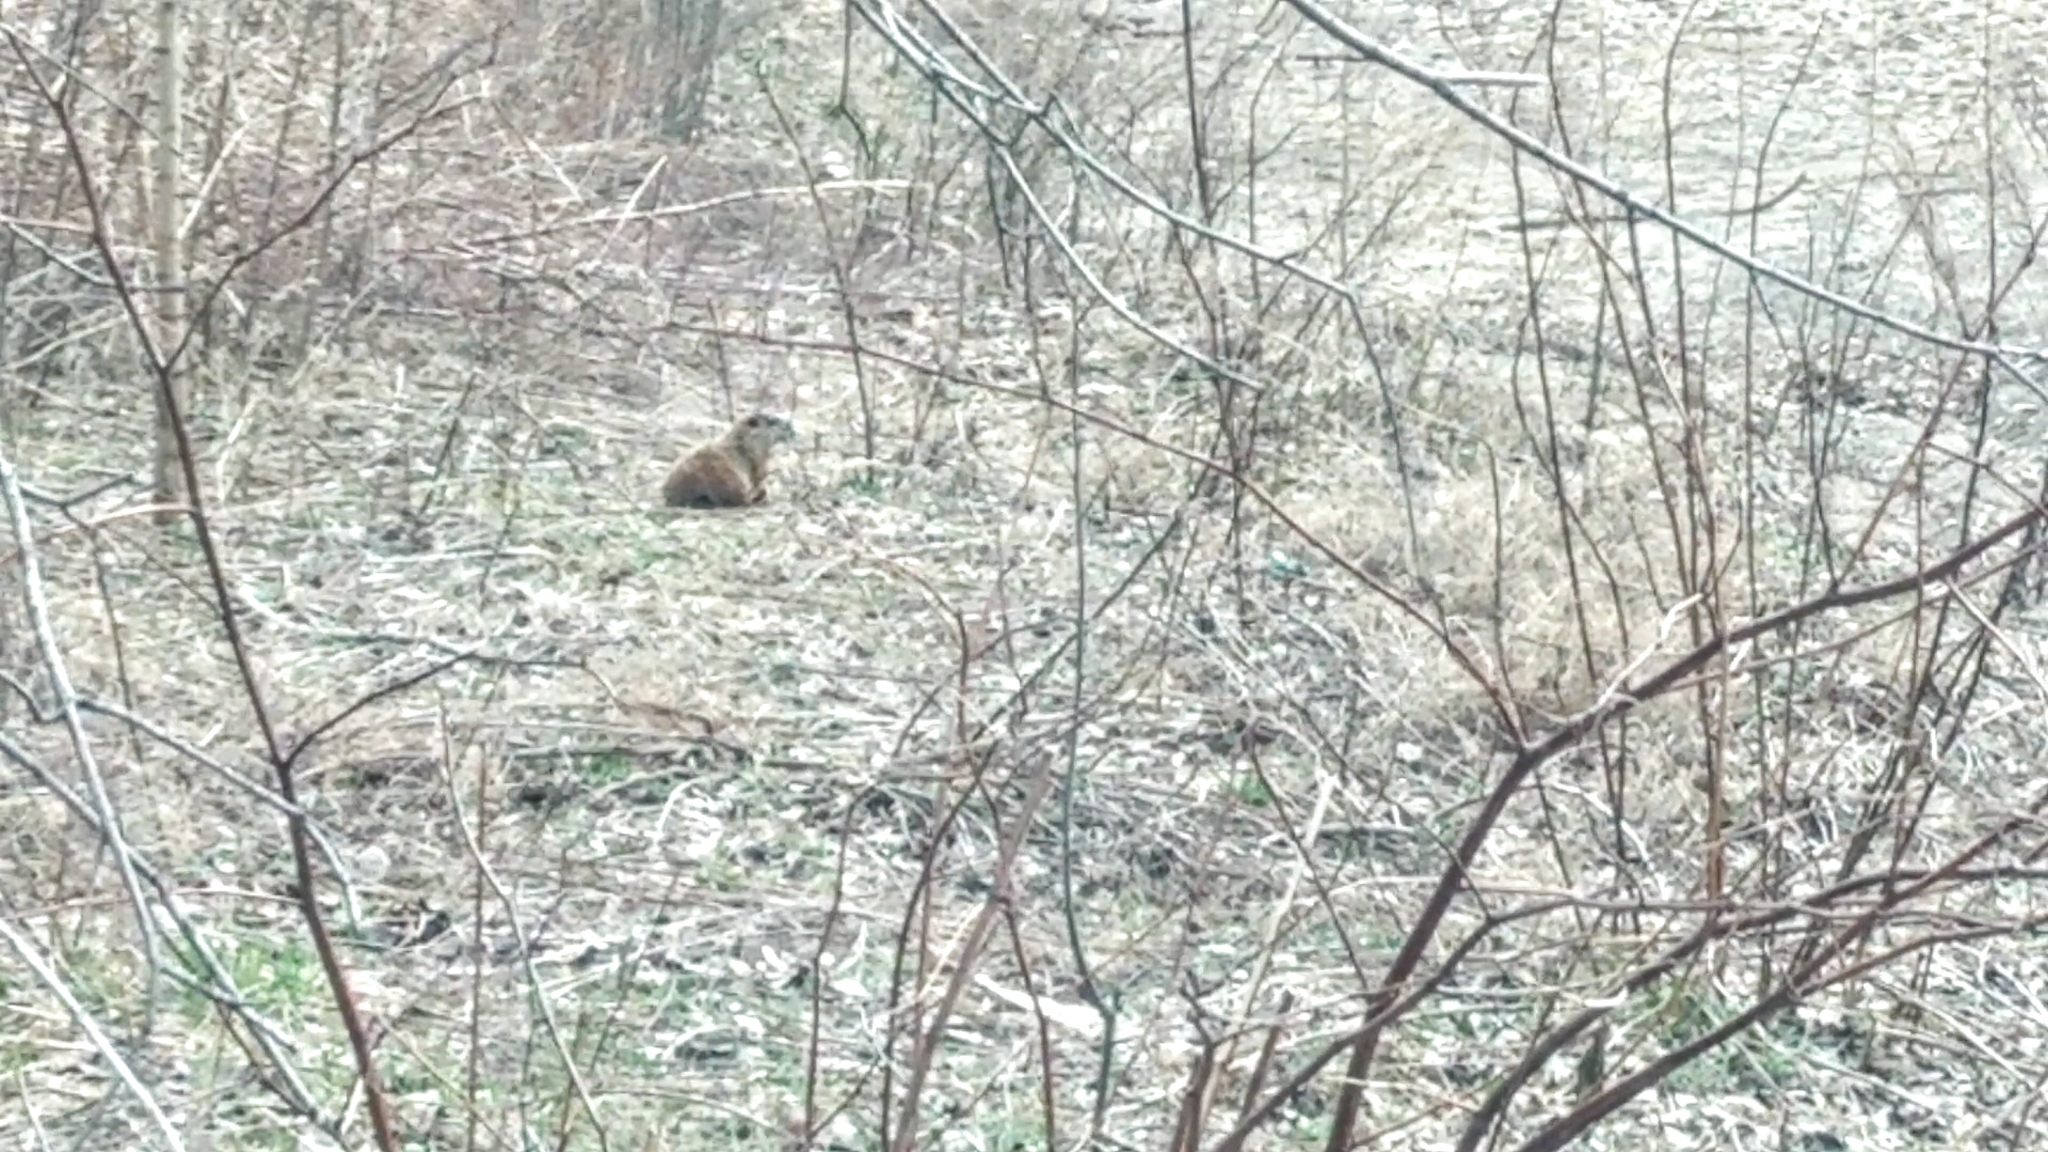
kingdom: Animalia
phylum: Chordata
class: Mammalia
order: Rodentia
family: Sciuridae
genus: Marmota
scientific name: Marmota monax
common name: Groundhog
